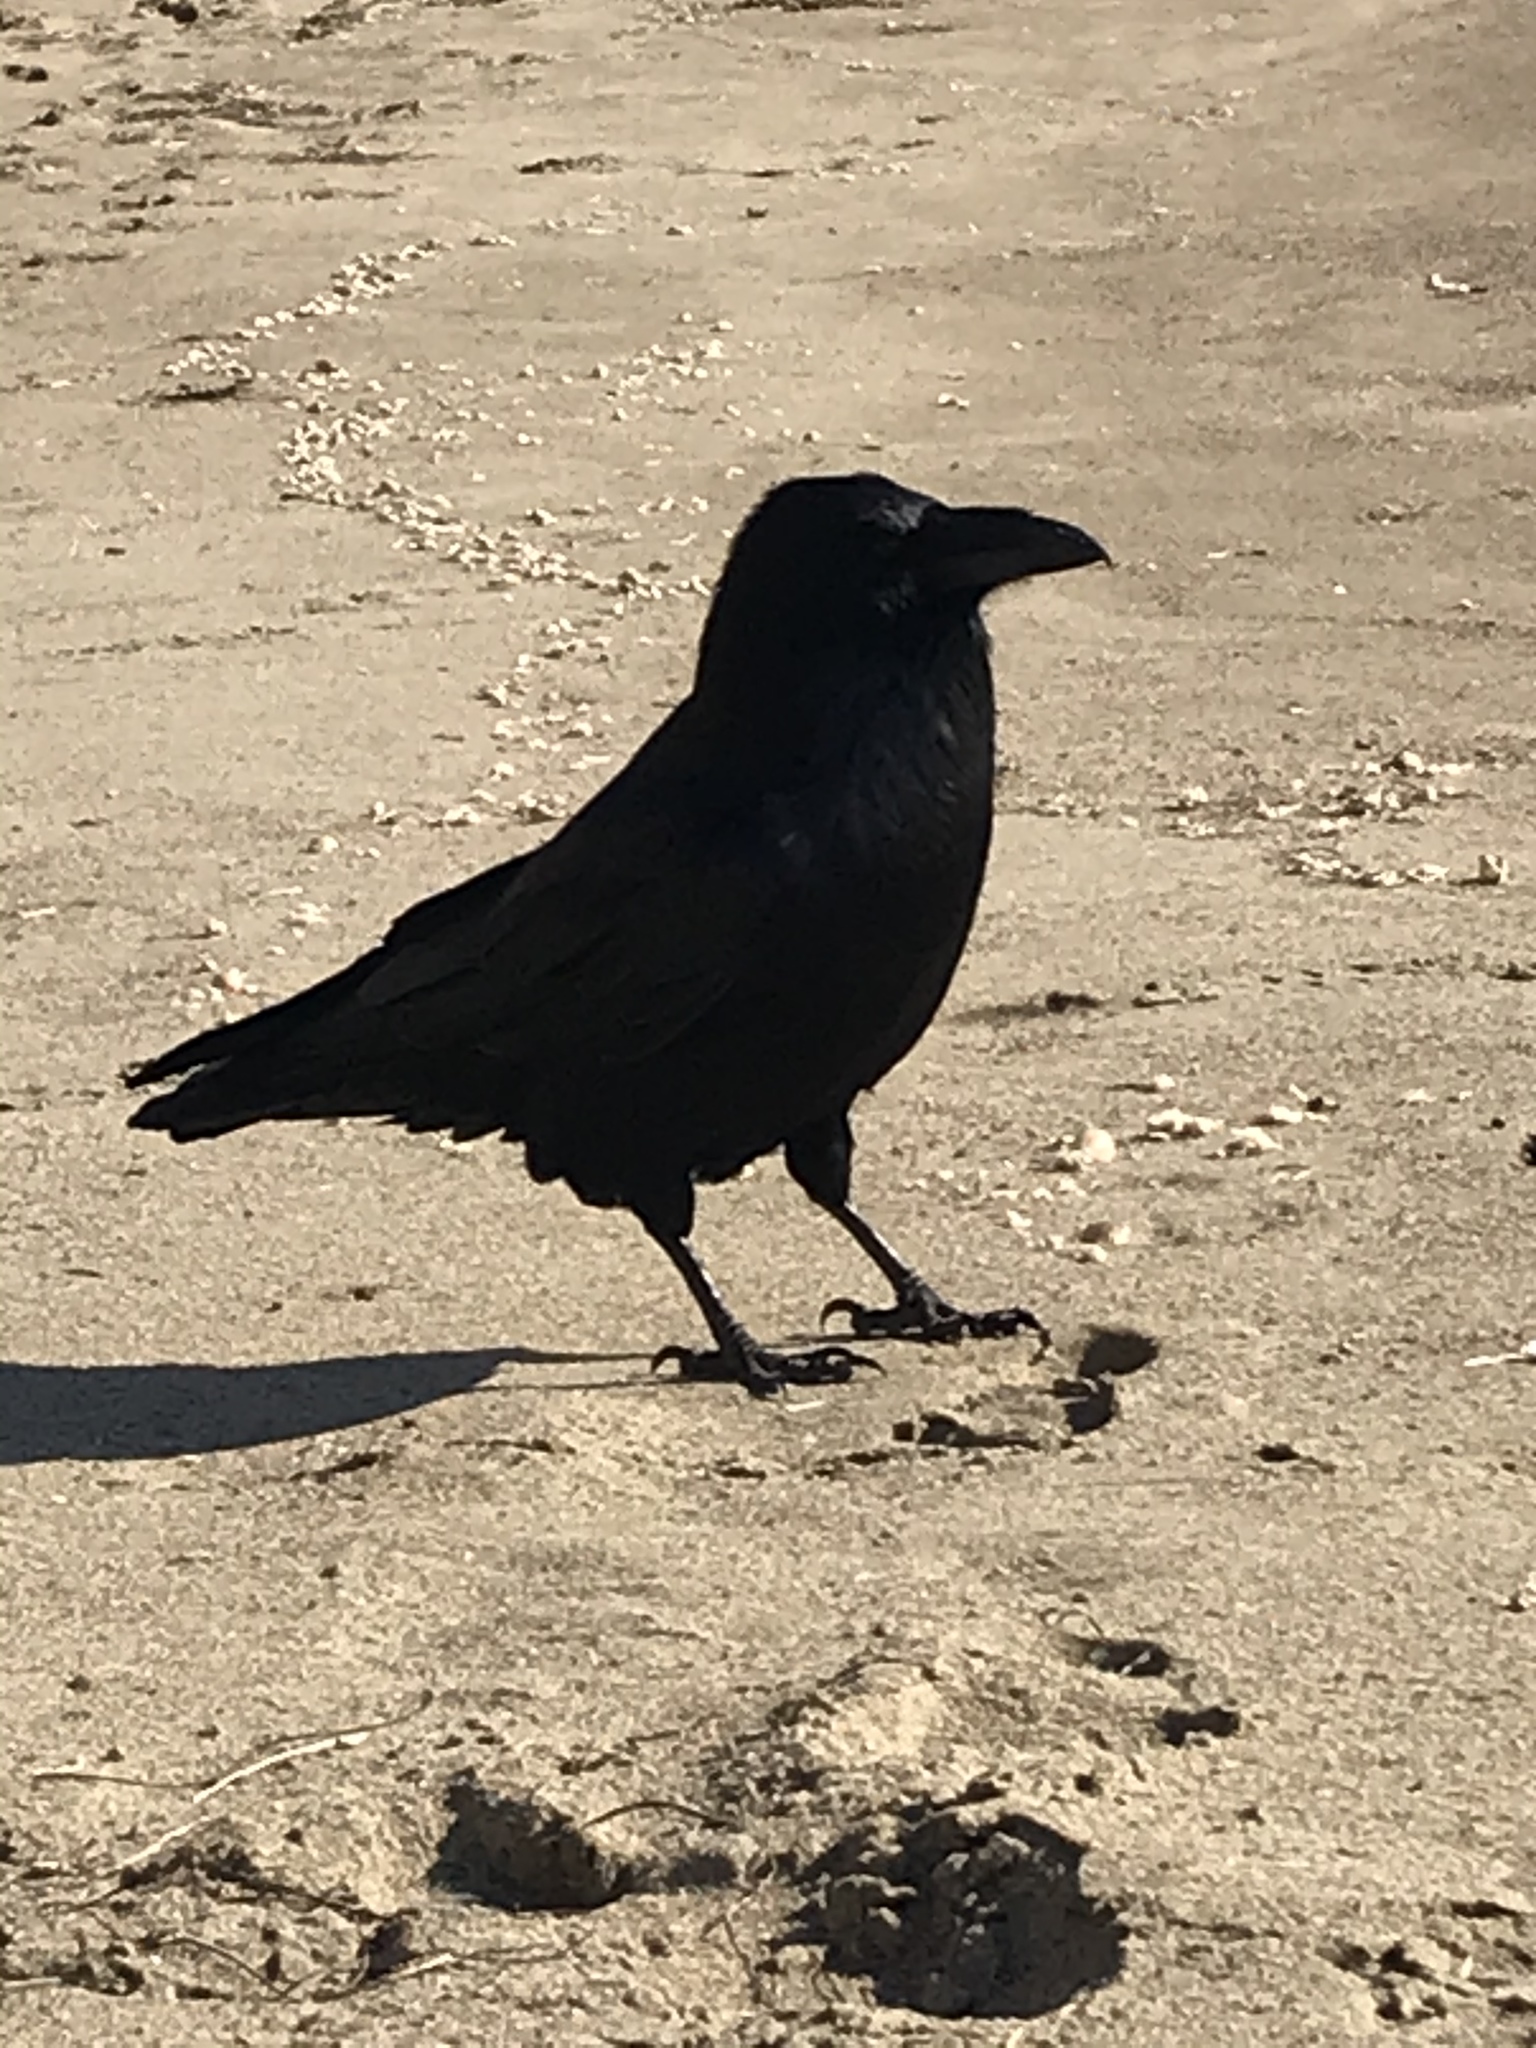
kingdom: Animalia
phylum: Chordata
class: Aves
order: Passeriformes
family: Corvidae
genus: Corvus
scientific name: Corvus corax
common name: Common raven
